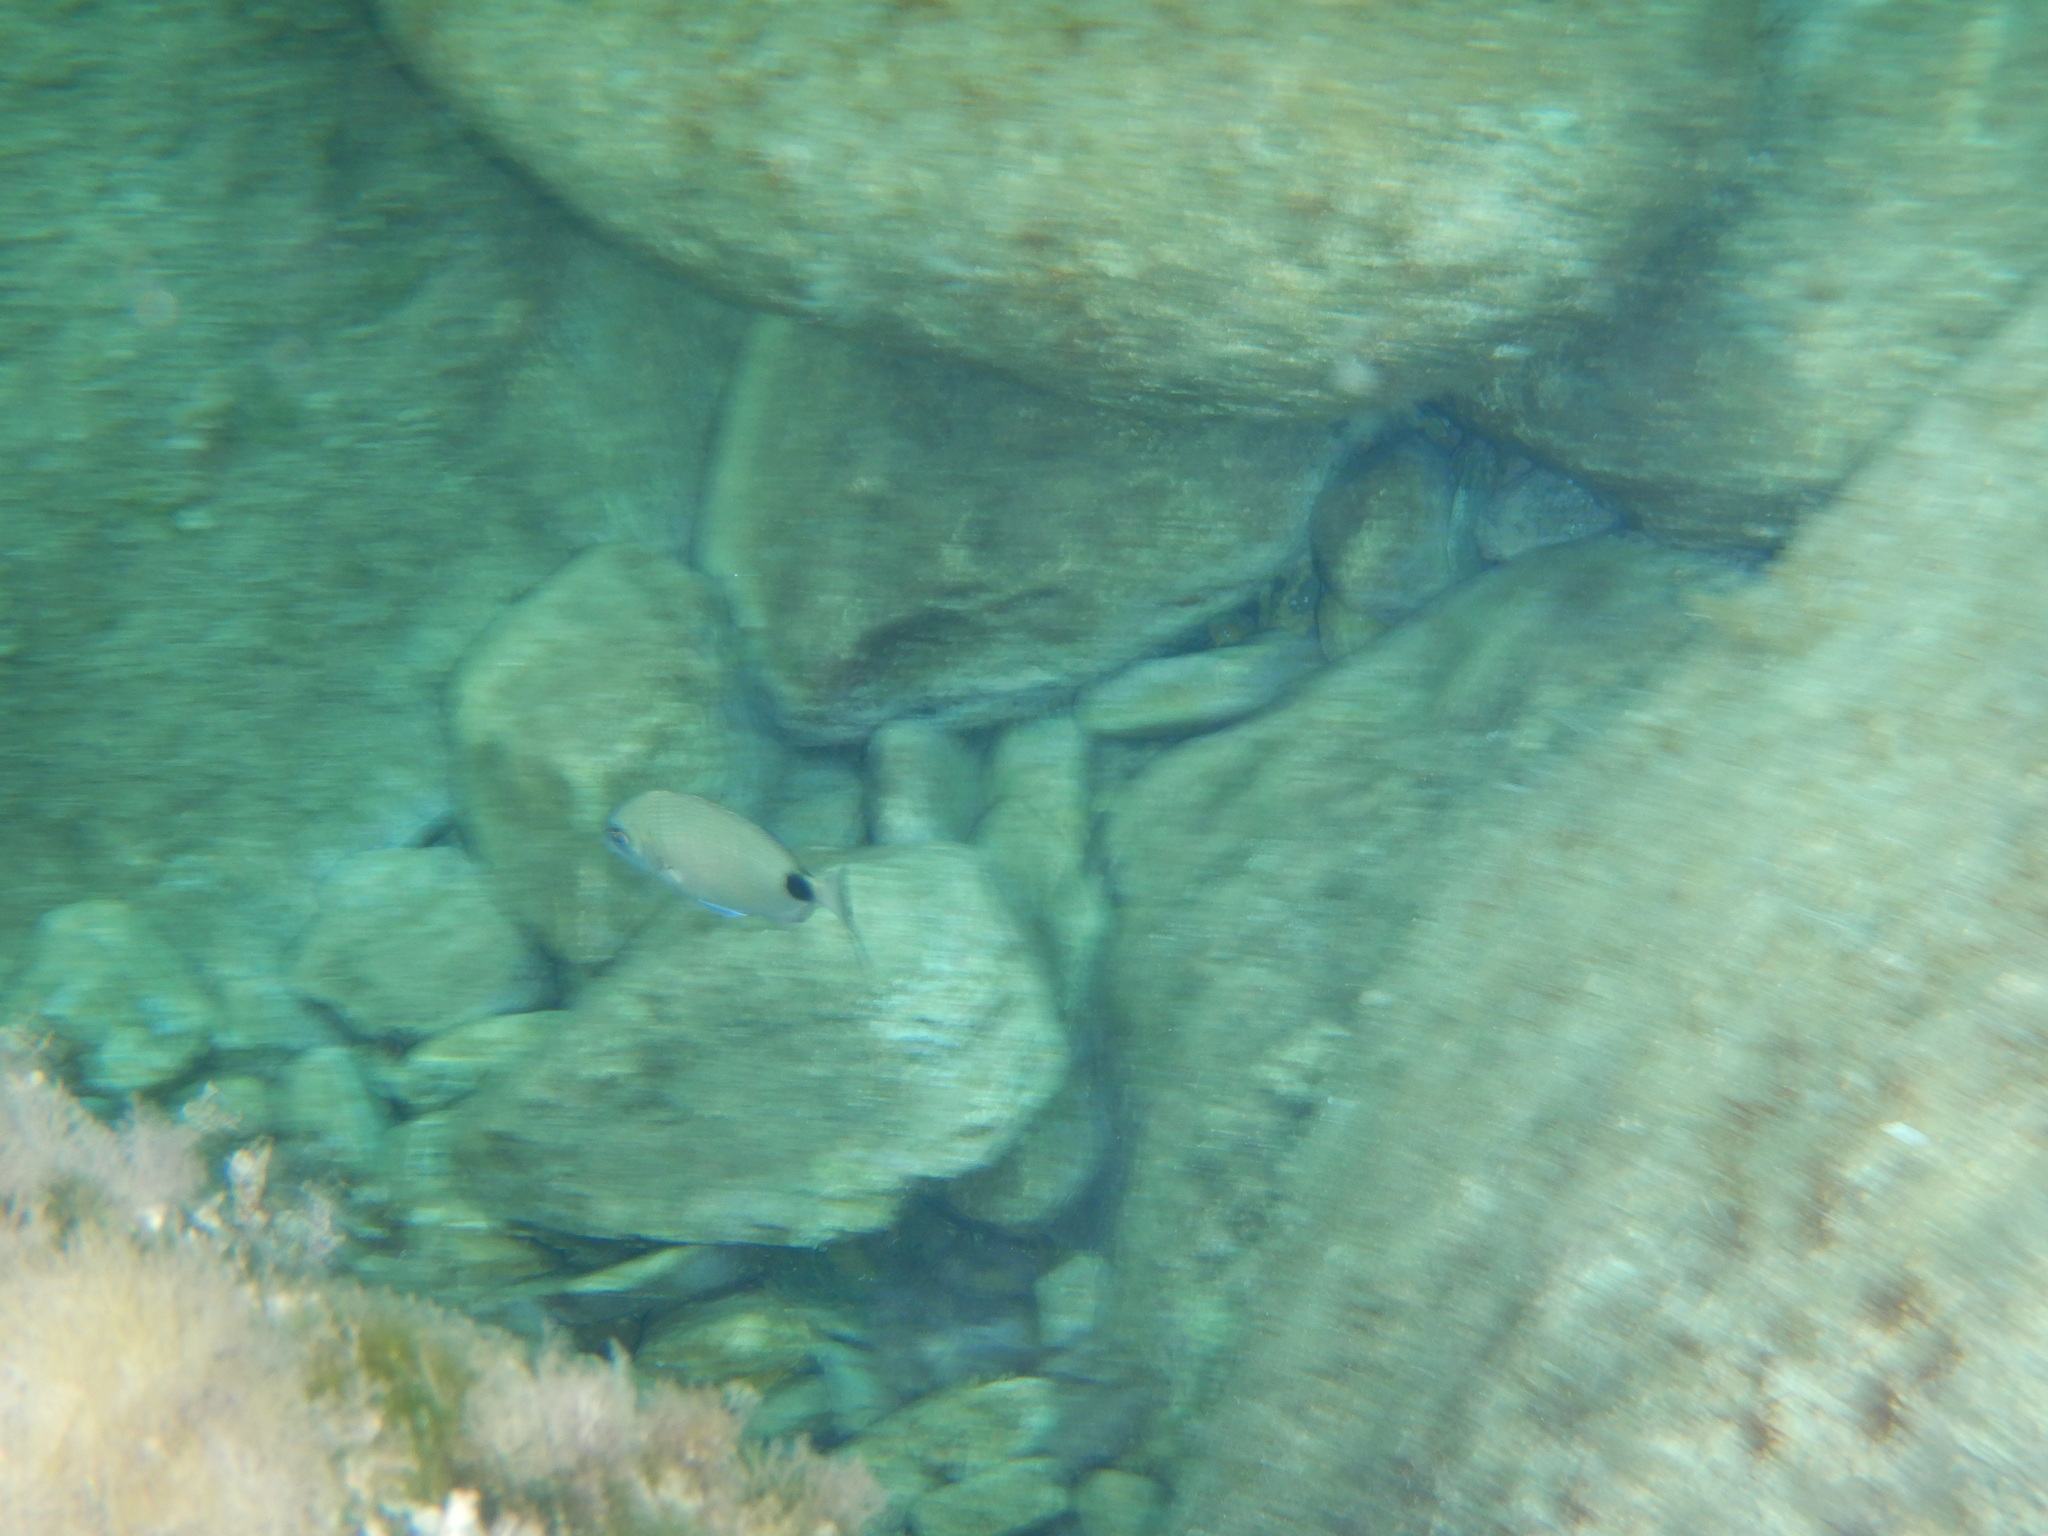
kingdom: Animalia
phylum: Chordata
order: Perciformes
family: Sparidae
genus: Diplodus
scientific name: Diplodus sargus
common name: White seabream
